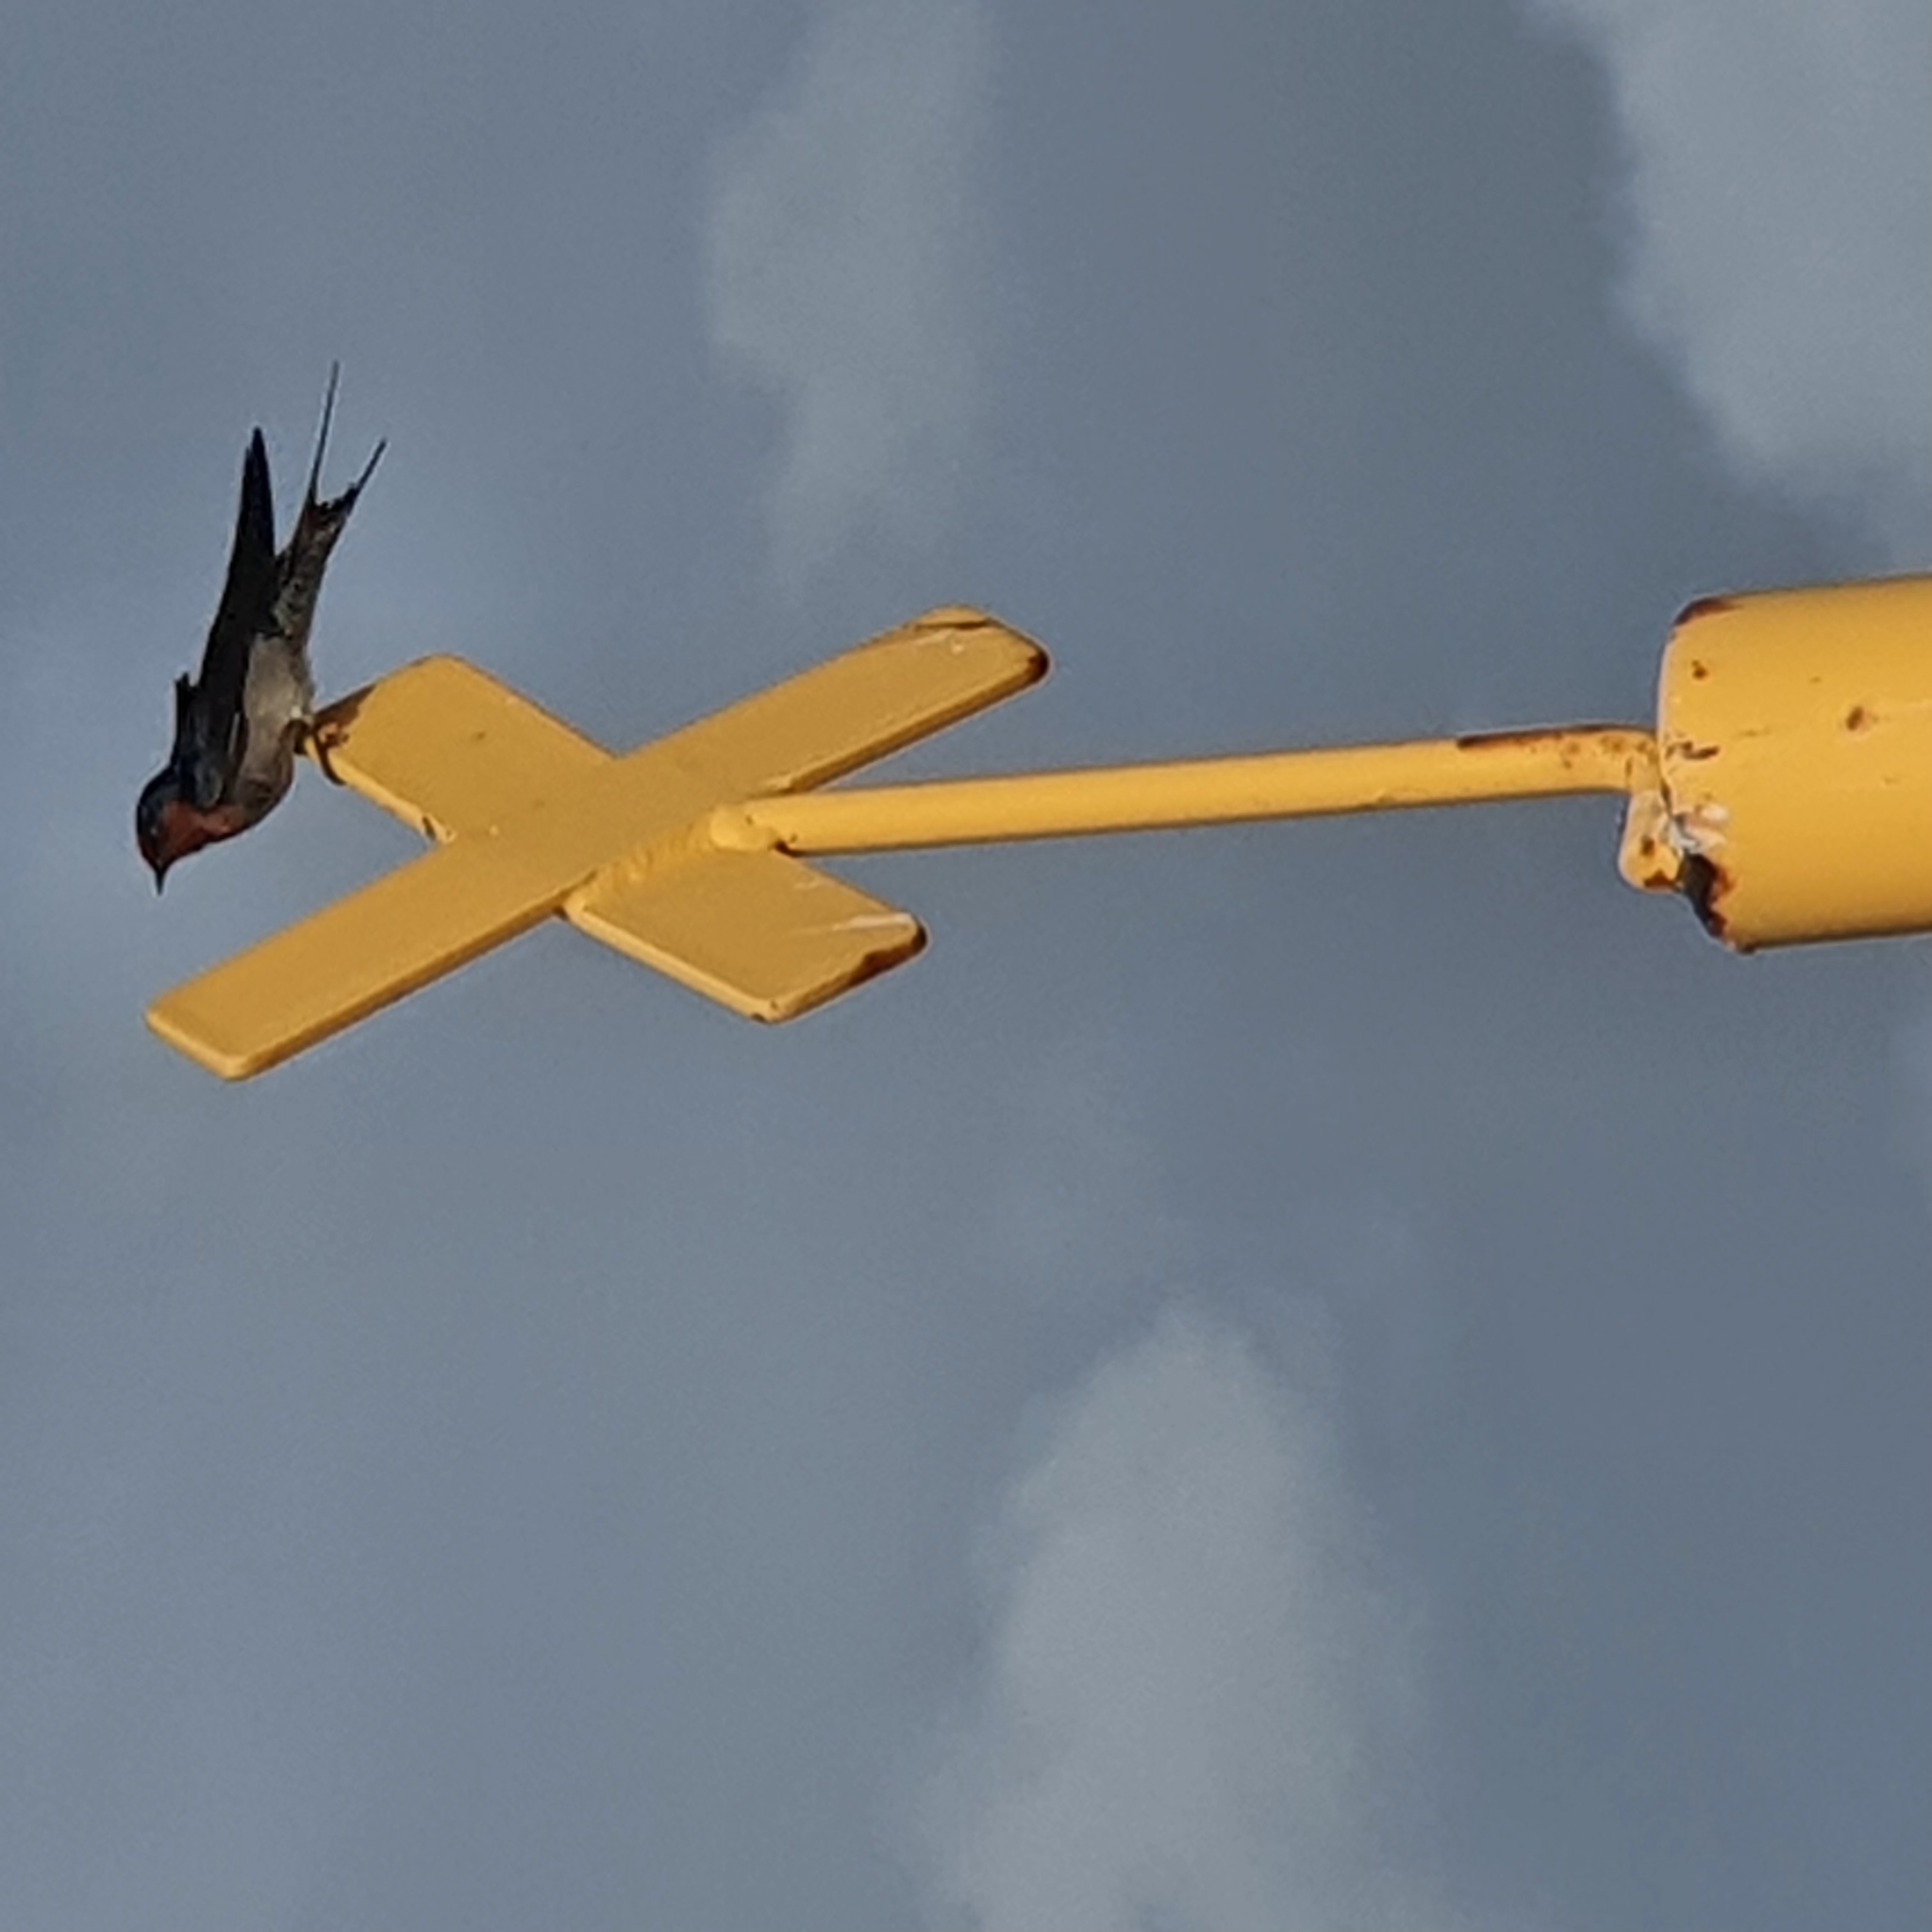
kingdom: Animalia
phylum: Chordata
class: Aves
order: Passeriformes
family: Hirundinidae
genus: Hirundo
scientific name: Hirundo neoxena
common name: Welcome swallow
